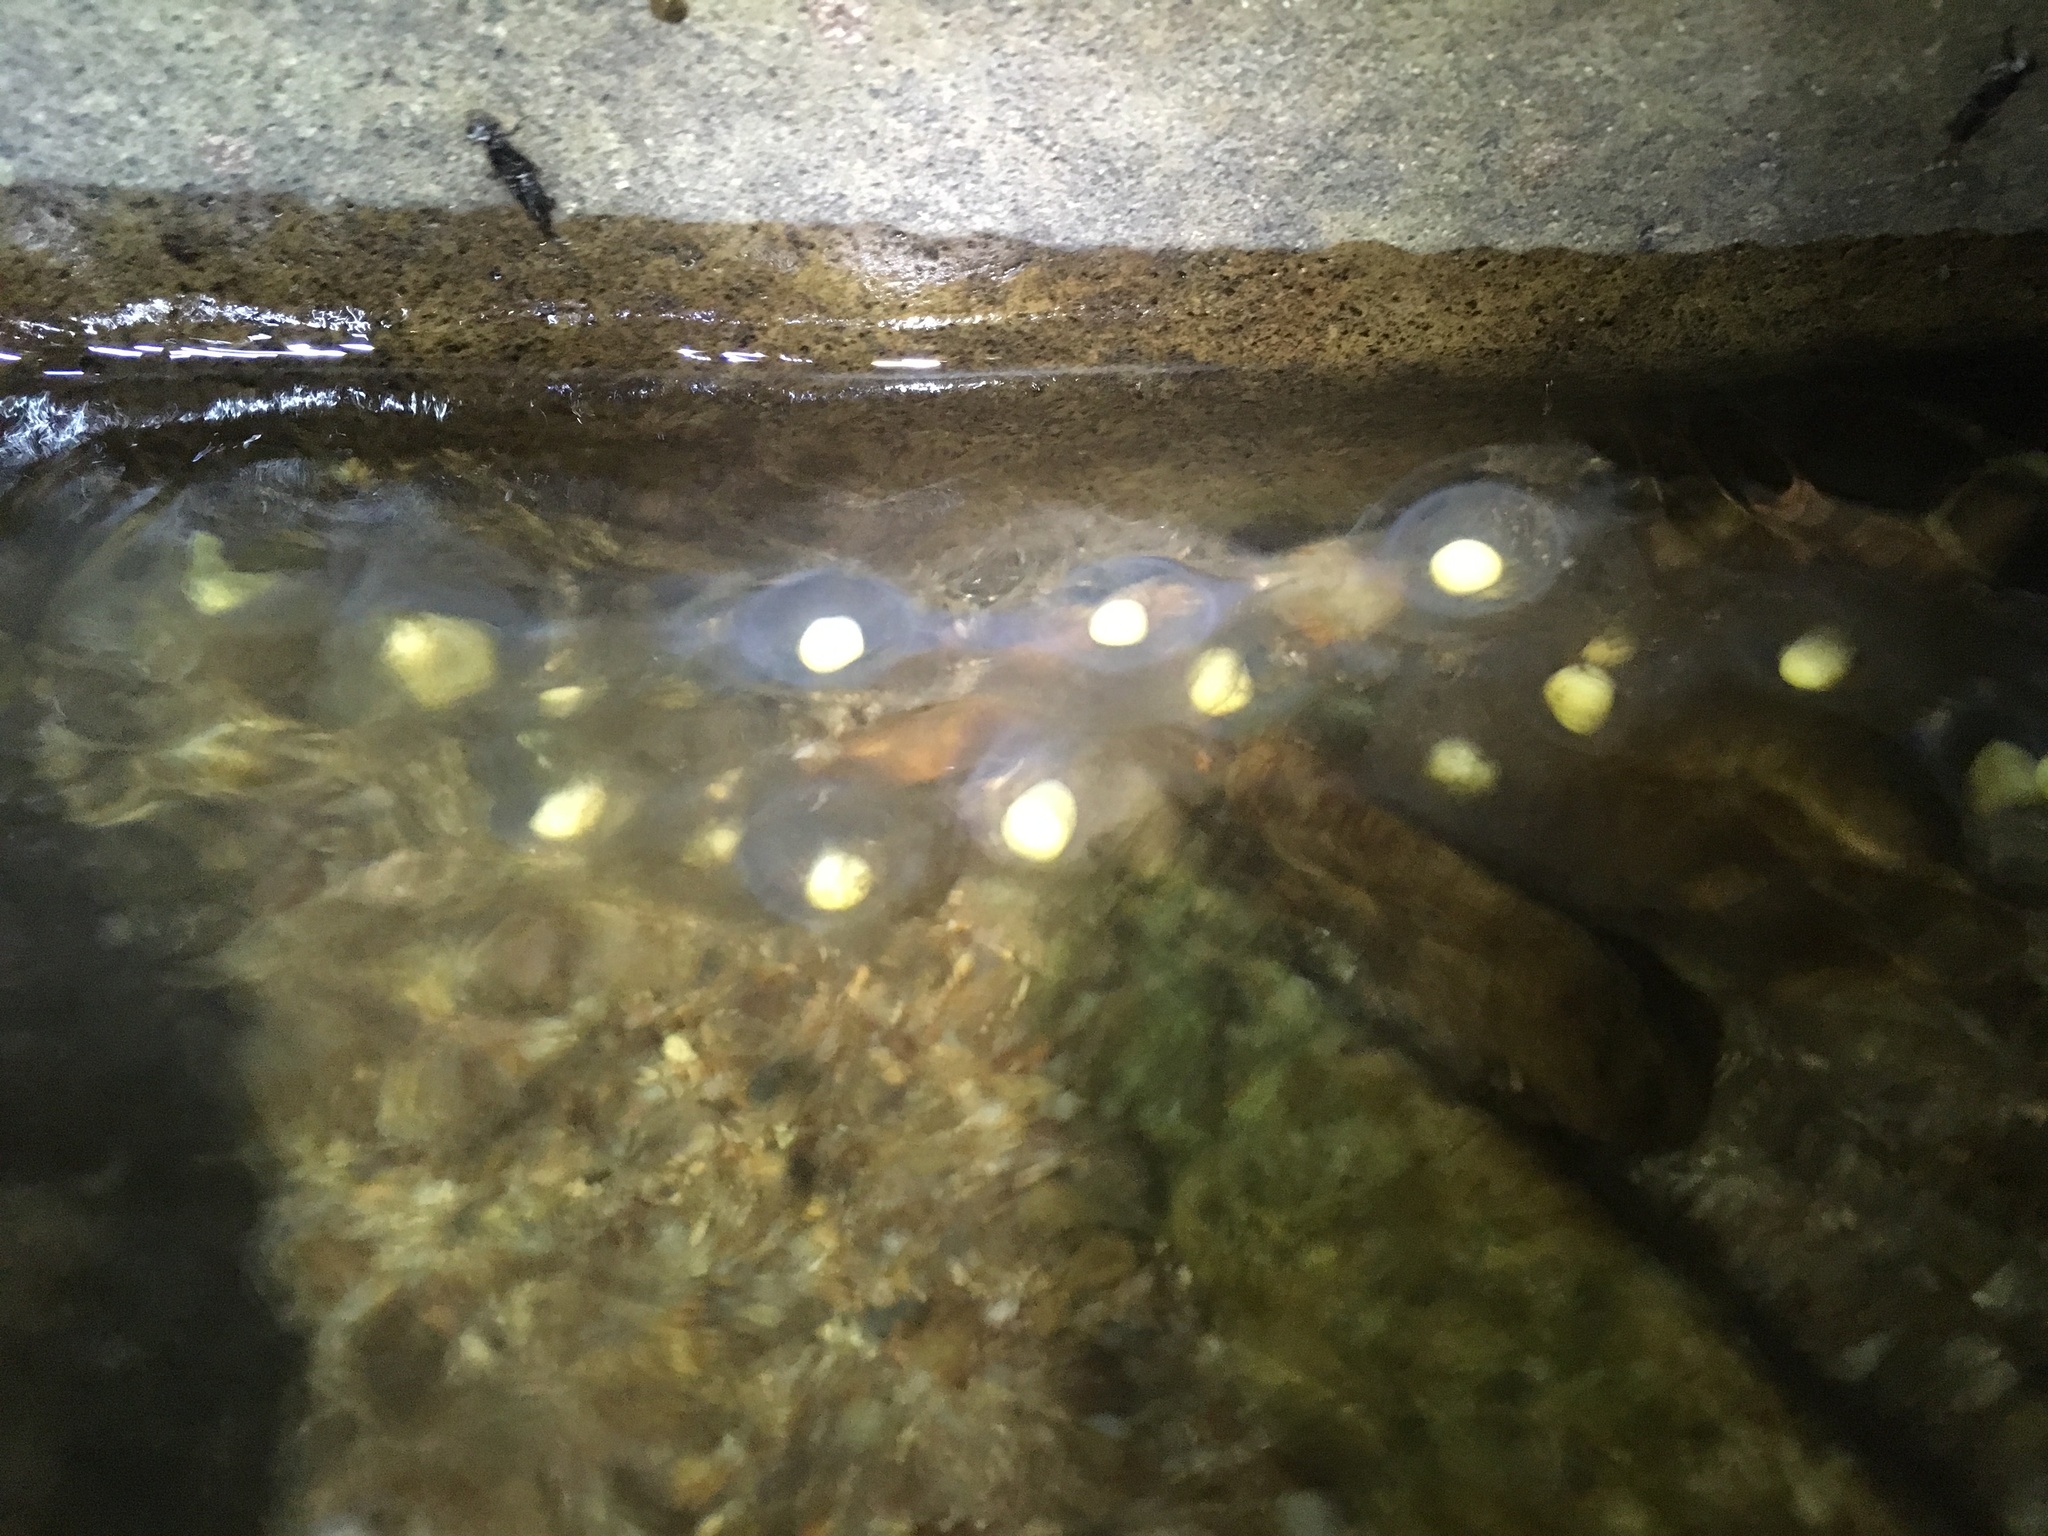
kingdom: Animalia
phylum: Chordata
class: Amphibia
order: Caudata
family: Cryptobranchidae
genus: Cryptobranchus
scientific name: Cryptobranchus alleganiensis
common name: Hellbender
